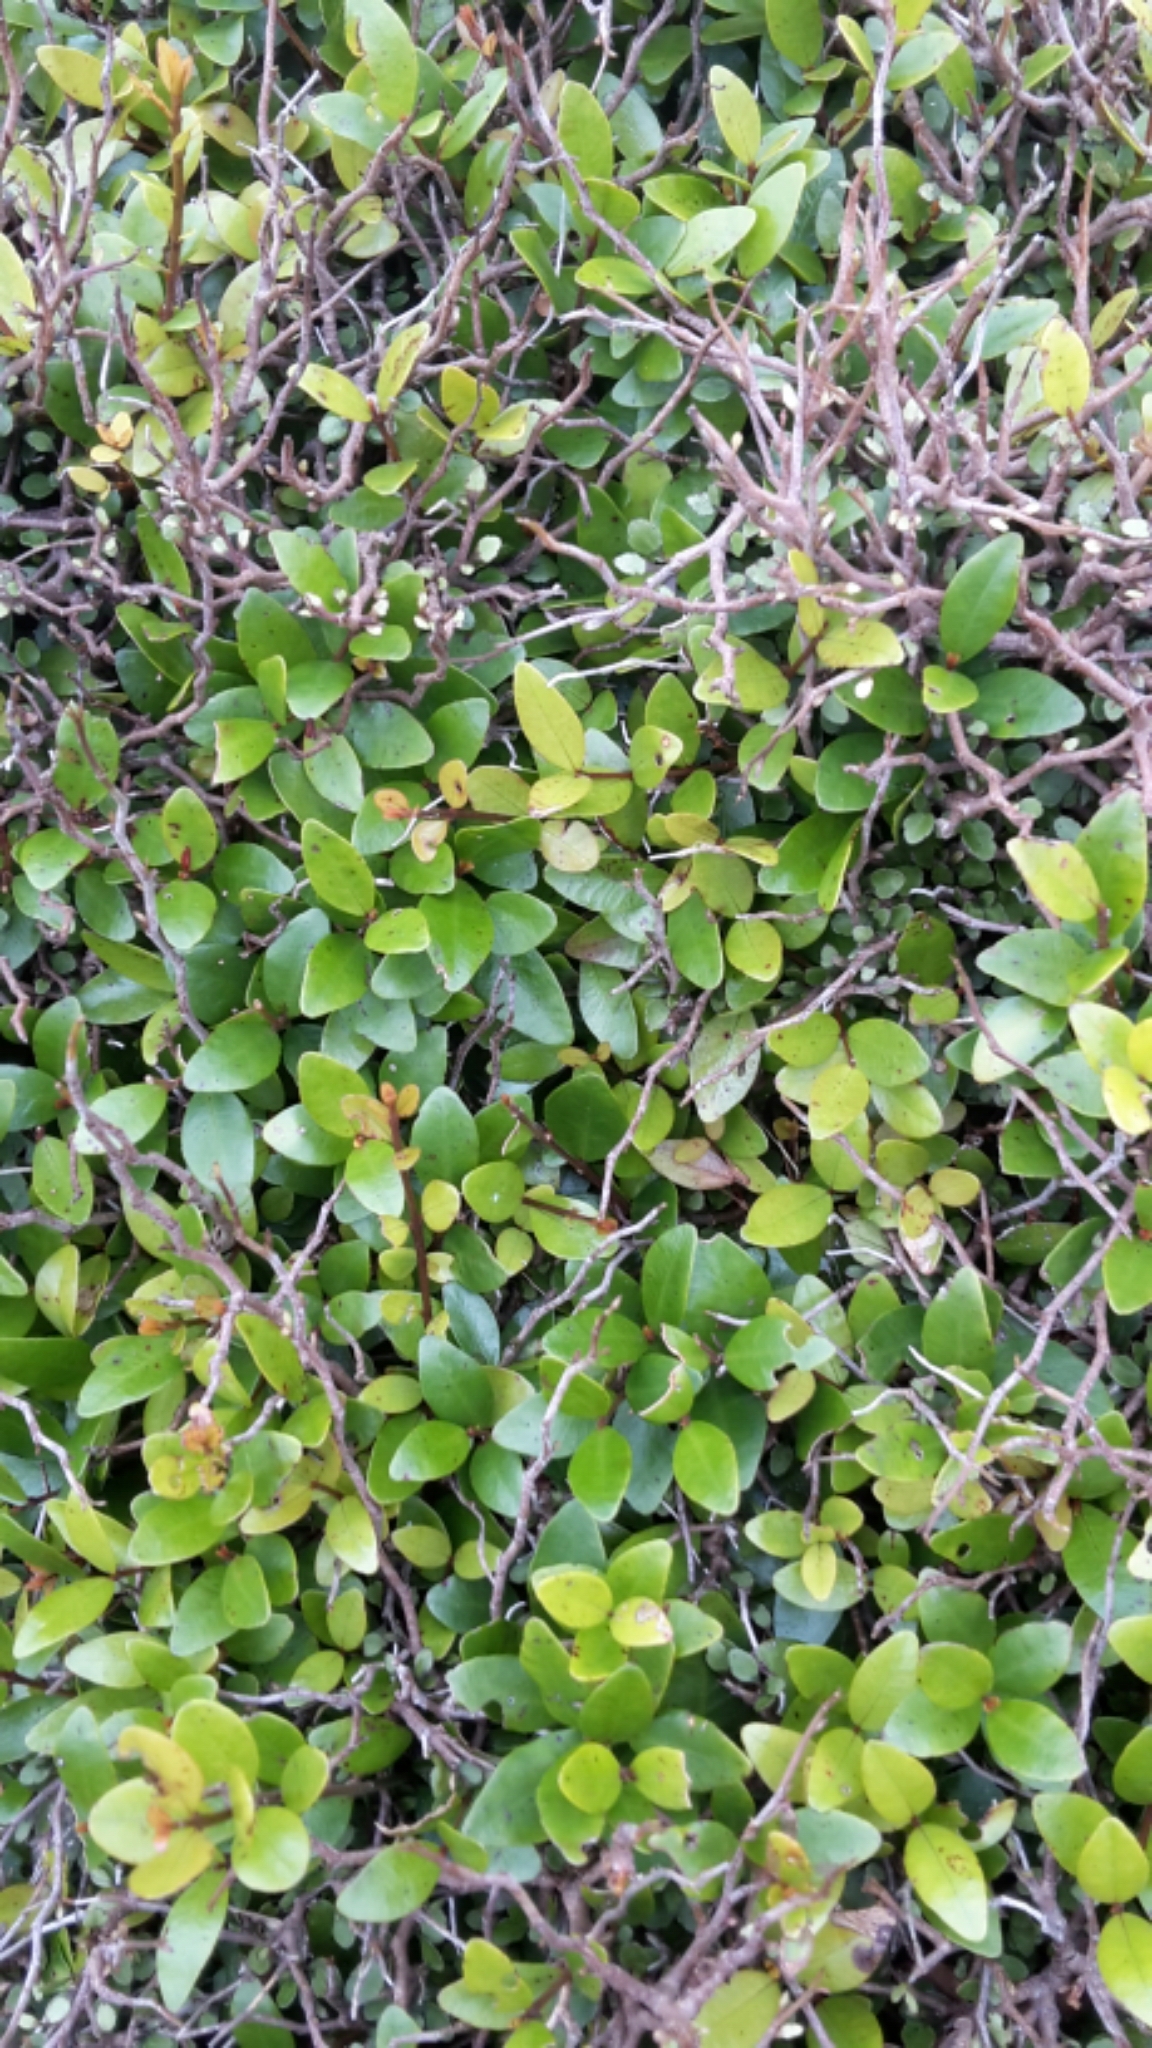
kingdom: Plantae
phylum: Tracheophyta
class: Magnoliopsida
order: Myrtales
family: Myrtaceae
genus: Metrosideros
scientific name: Metrosideros fulgens
